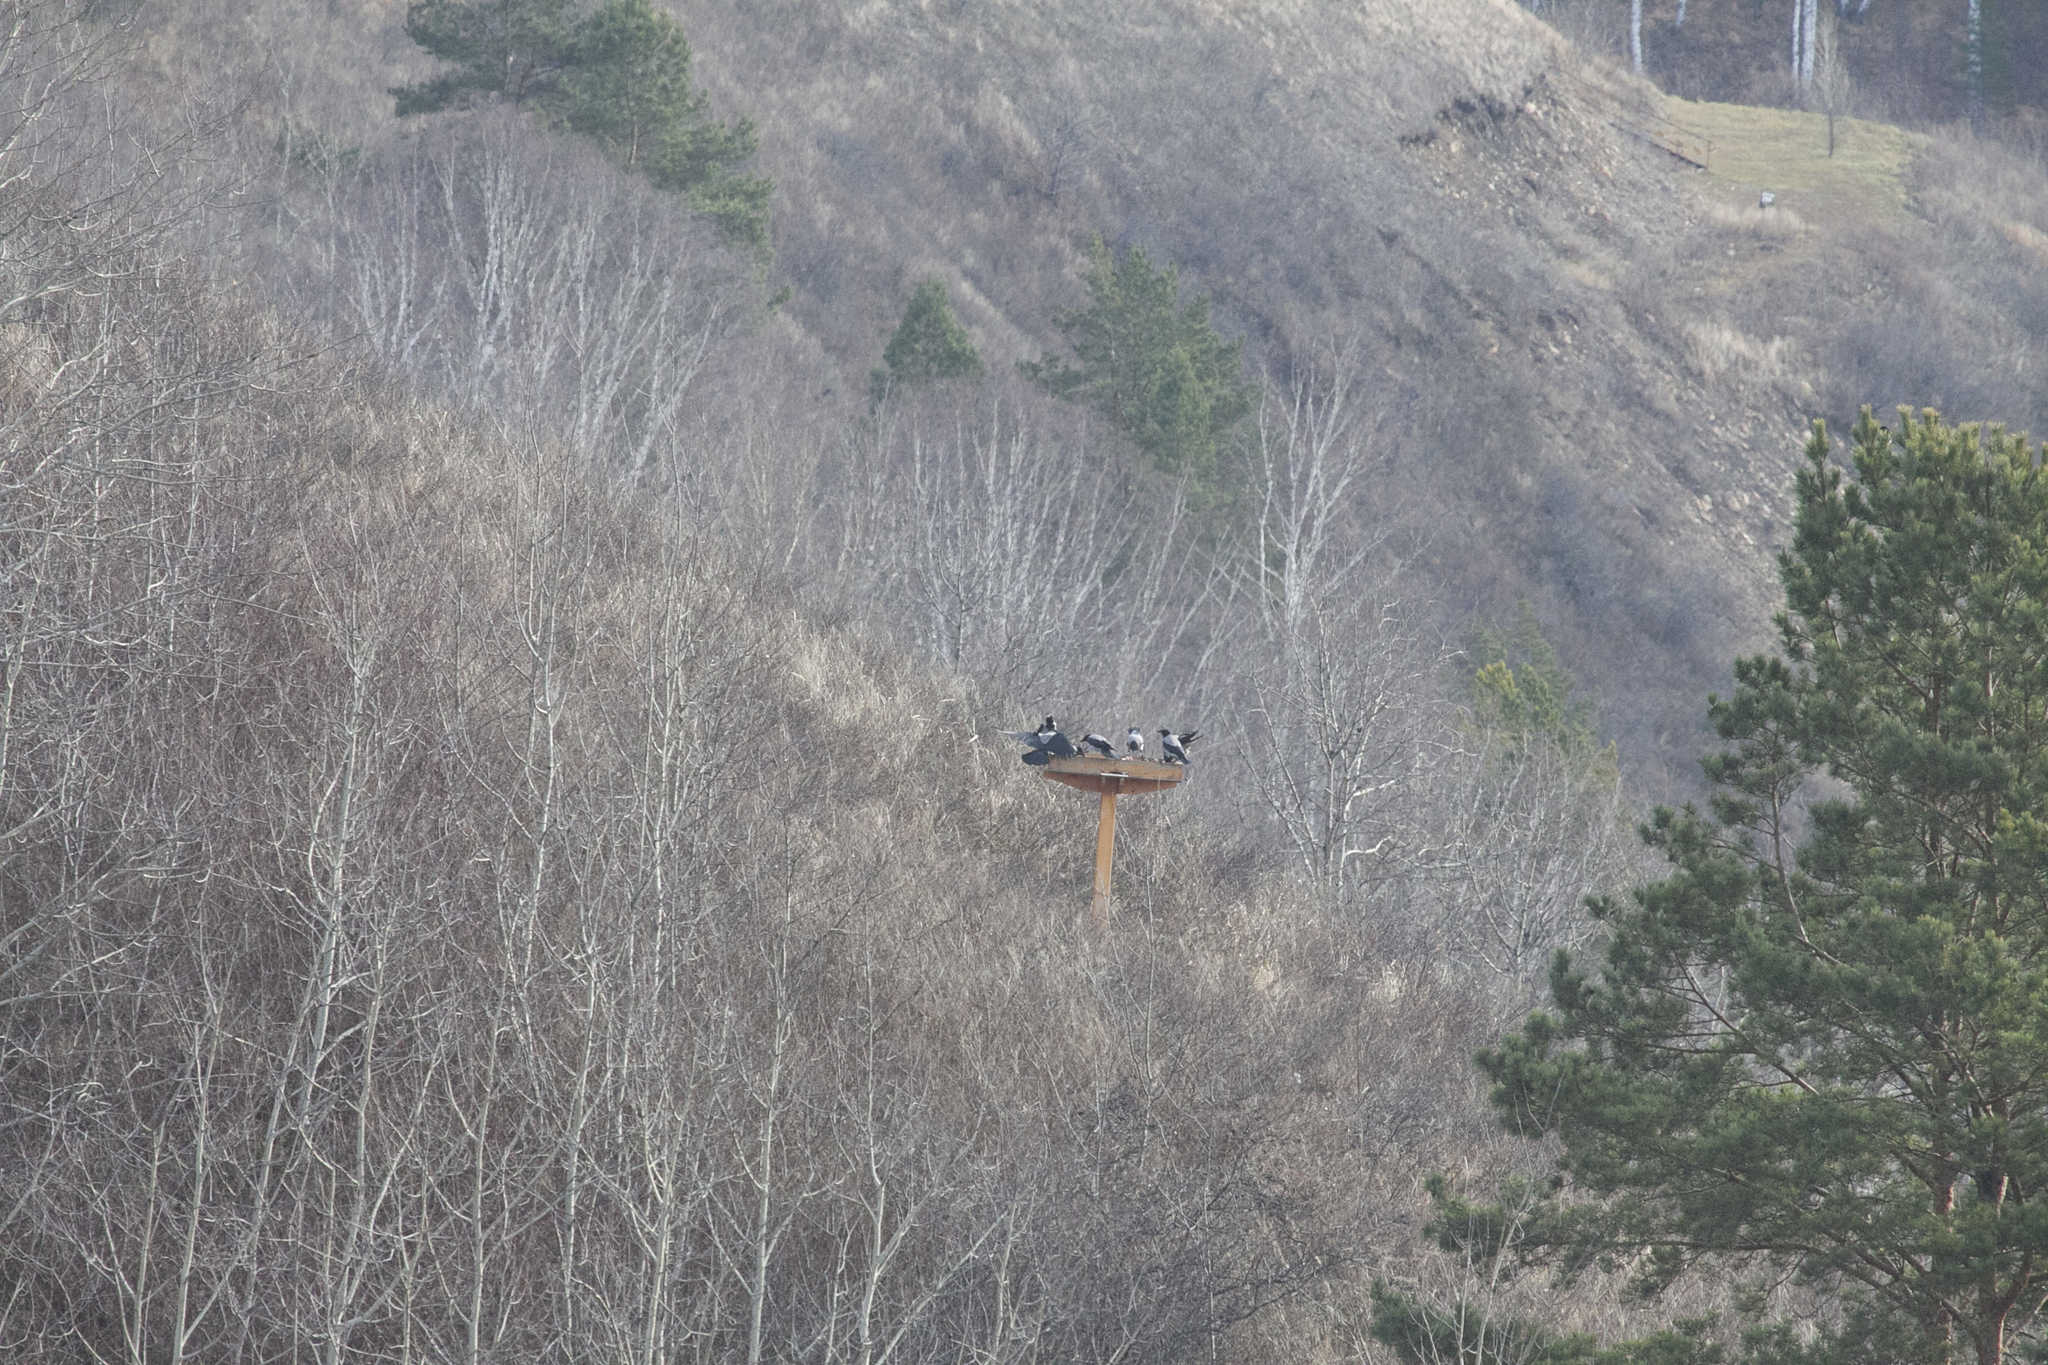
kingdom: Animalia
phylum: Chordata
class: Aves
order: Passeriformes
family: Corvidae
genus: Corvus
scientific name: Corvus cornix
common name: Hooded crow
